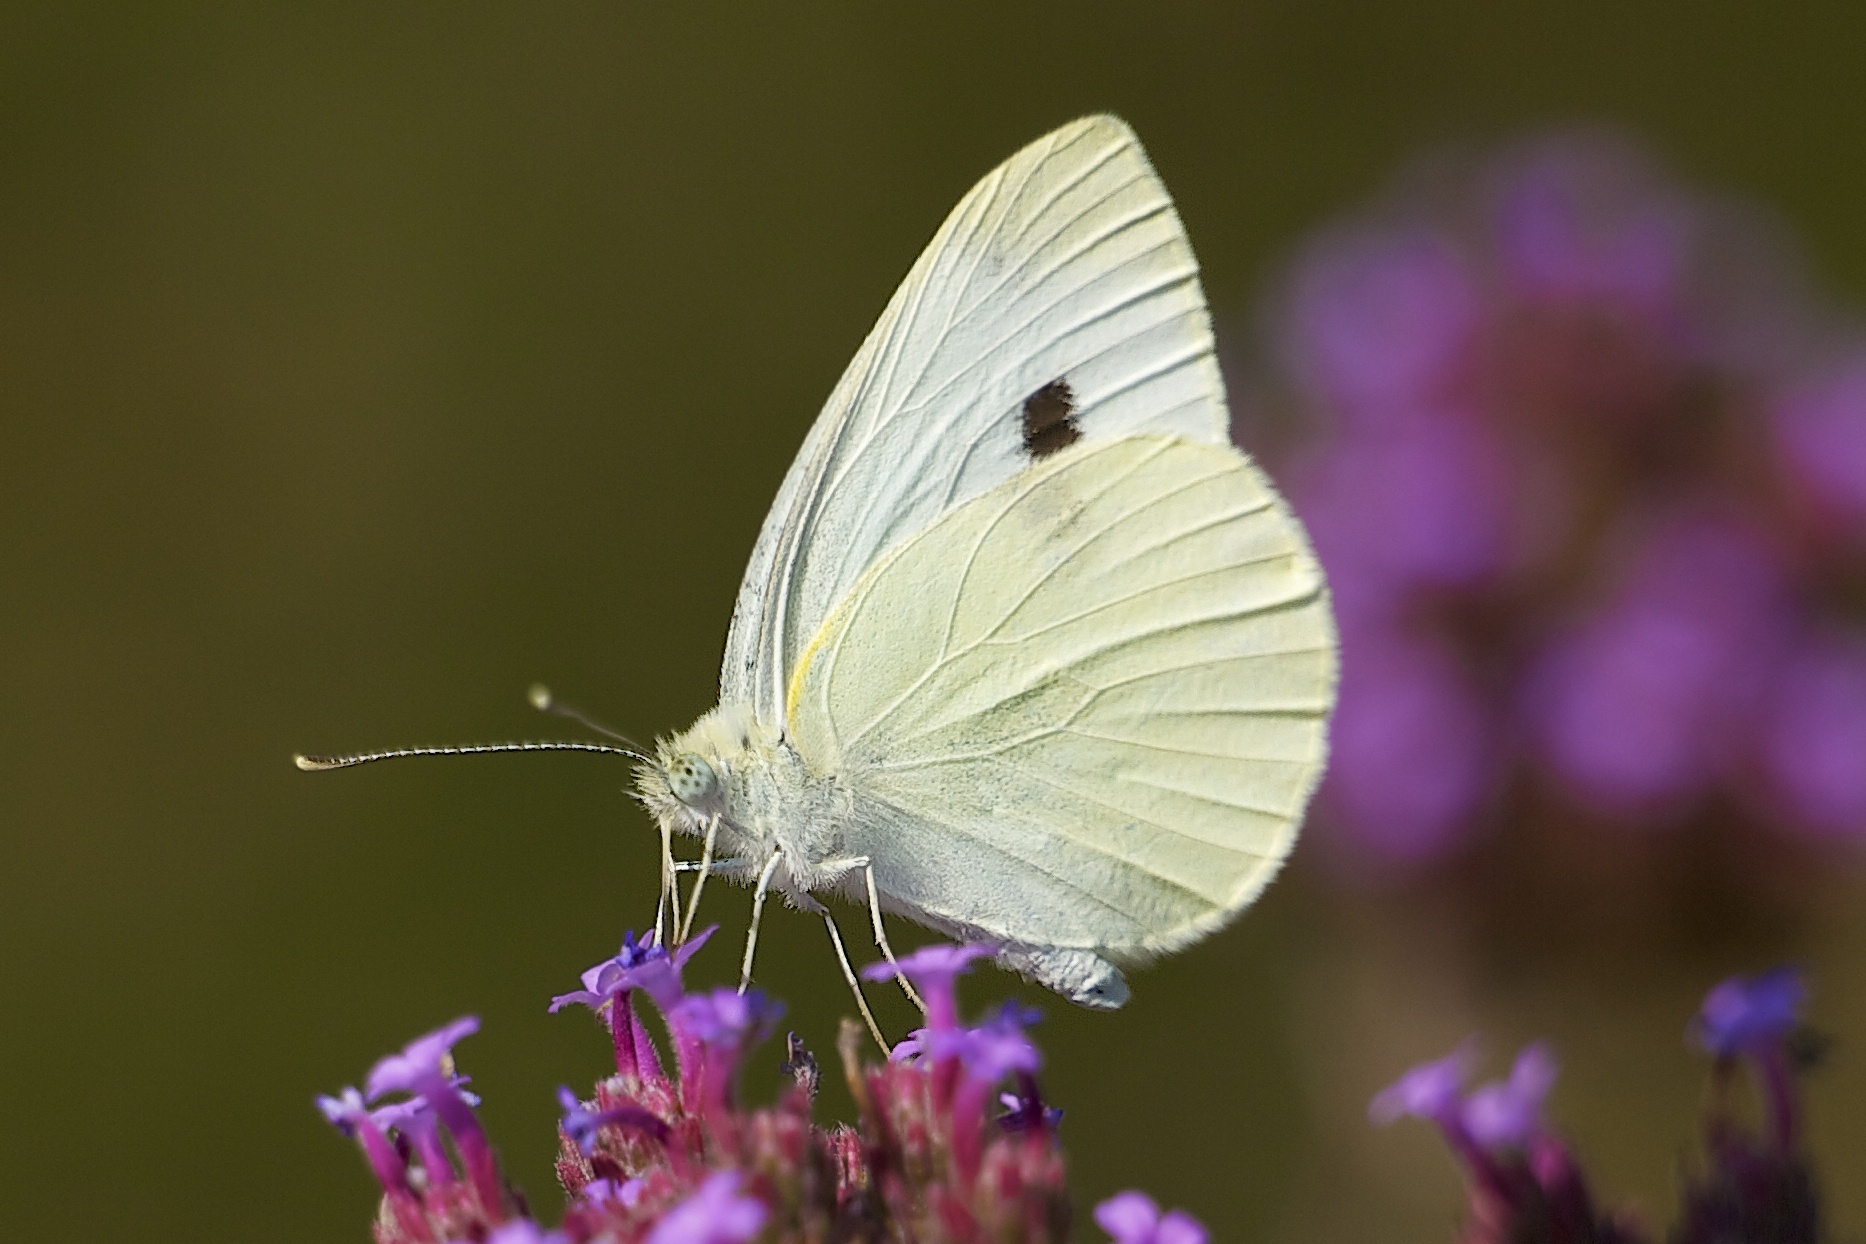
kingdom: Animalia
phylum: Arthropoda
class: Insecta
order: Lepidoptera
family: Pieridae
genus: Pieris
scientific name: Pieris rapae
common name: Small white
